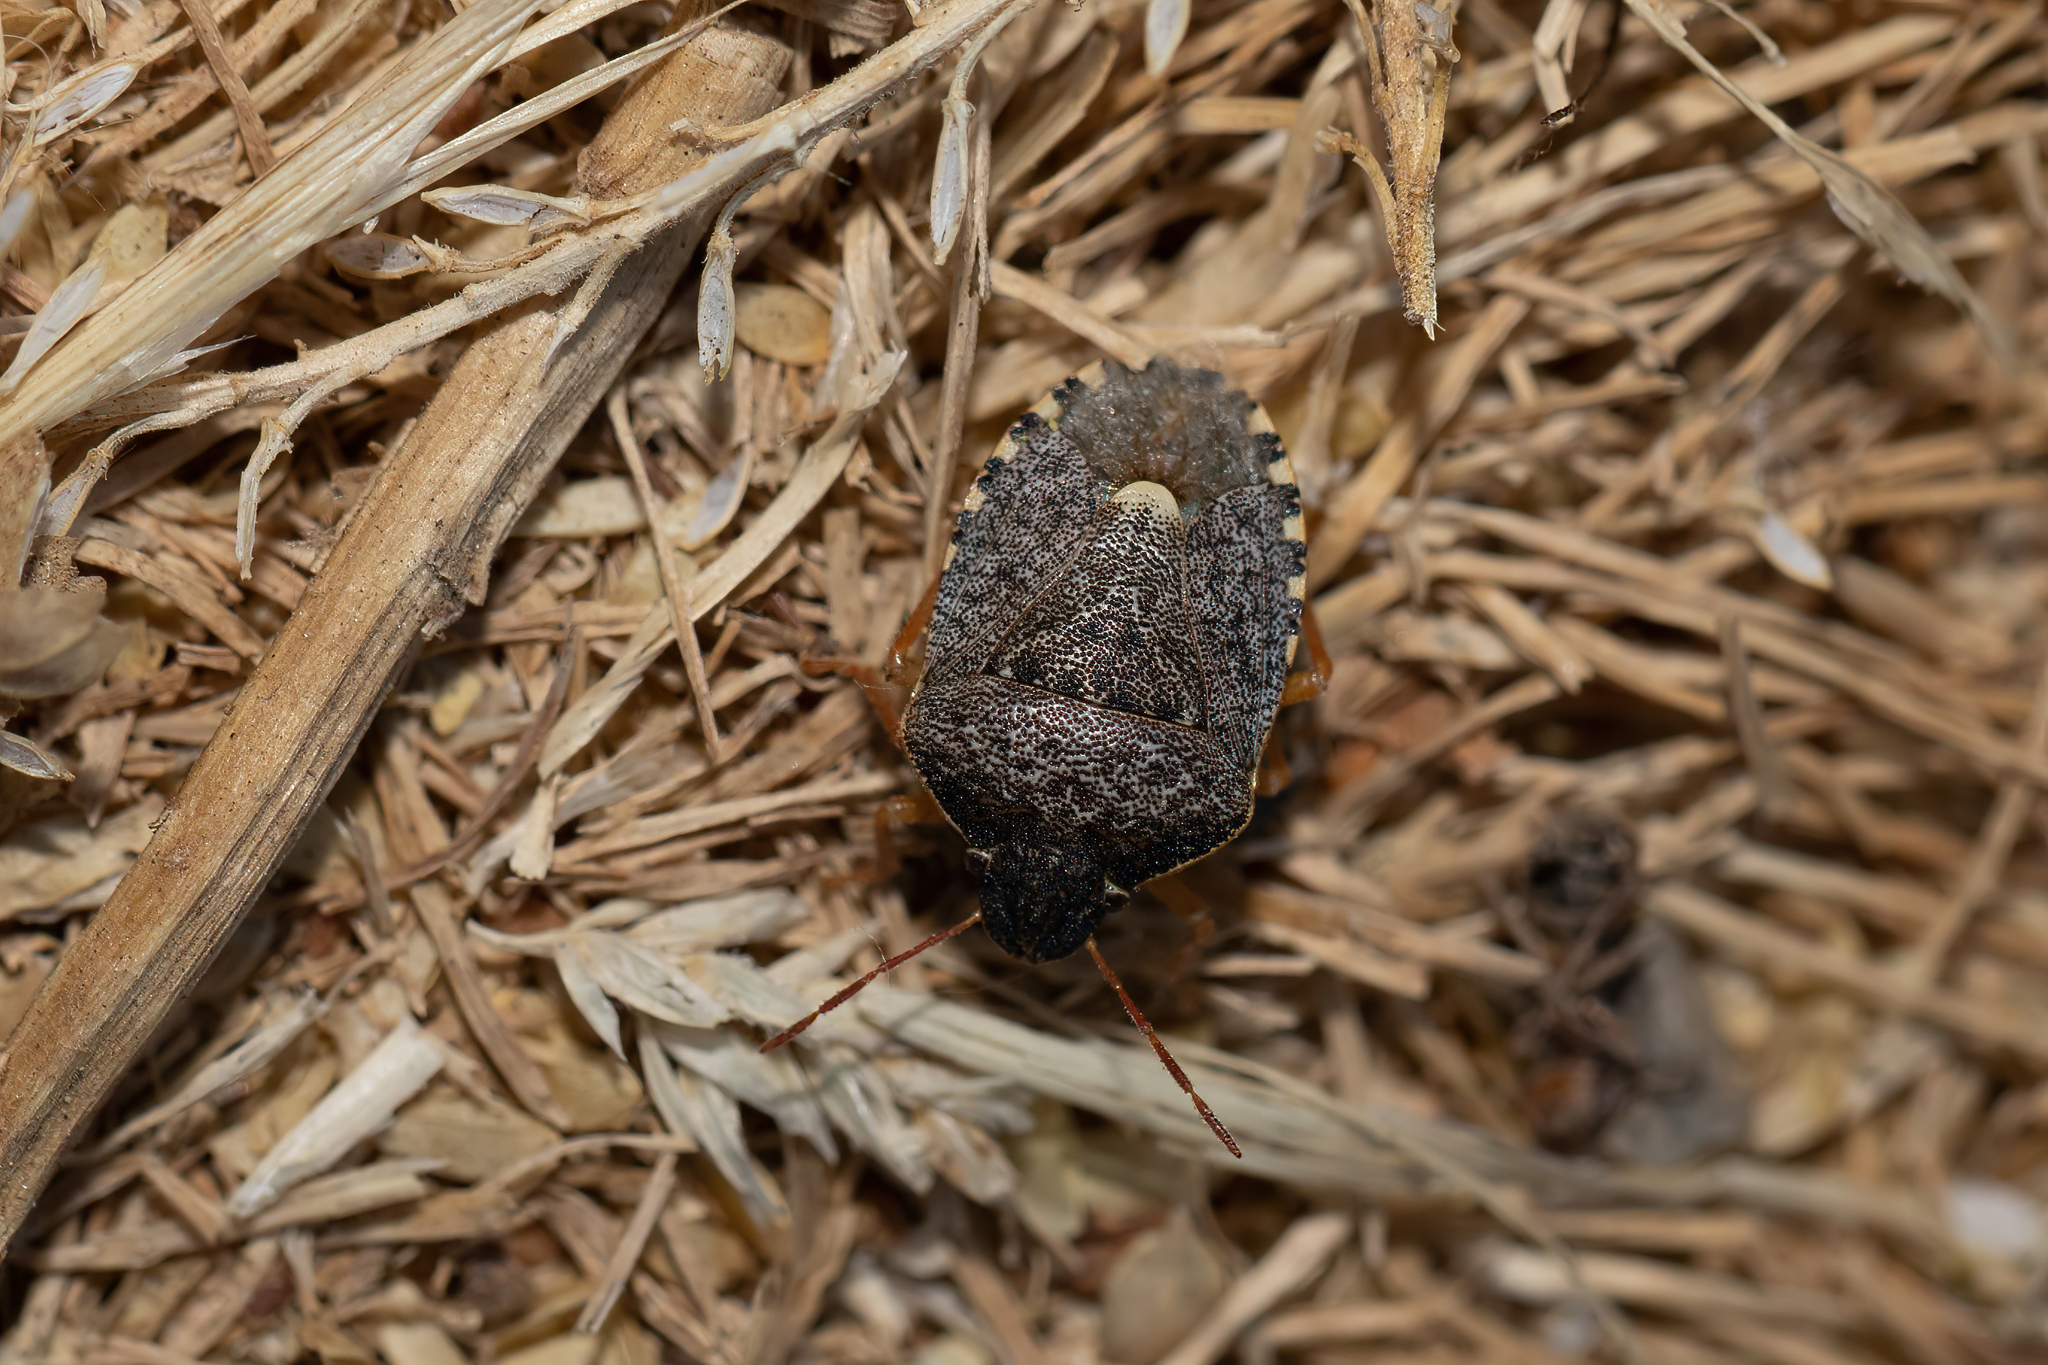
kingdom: Animalia
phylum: Arthropoda
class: Insecta
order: Hemiptera
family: Pentatomidae
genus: Holcostethus
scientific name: Holcostethus abbreviatus
